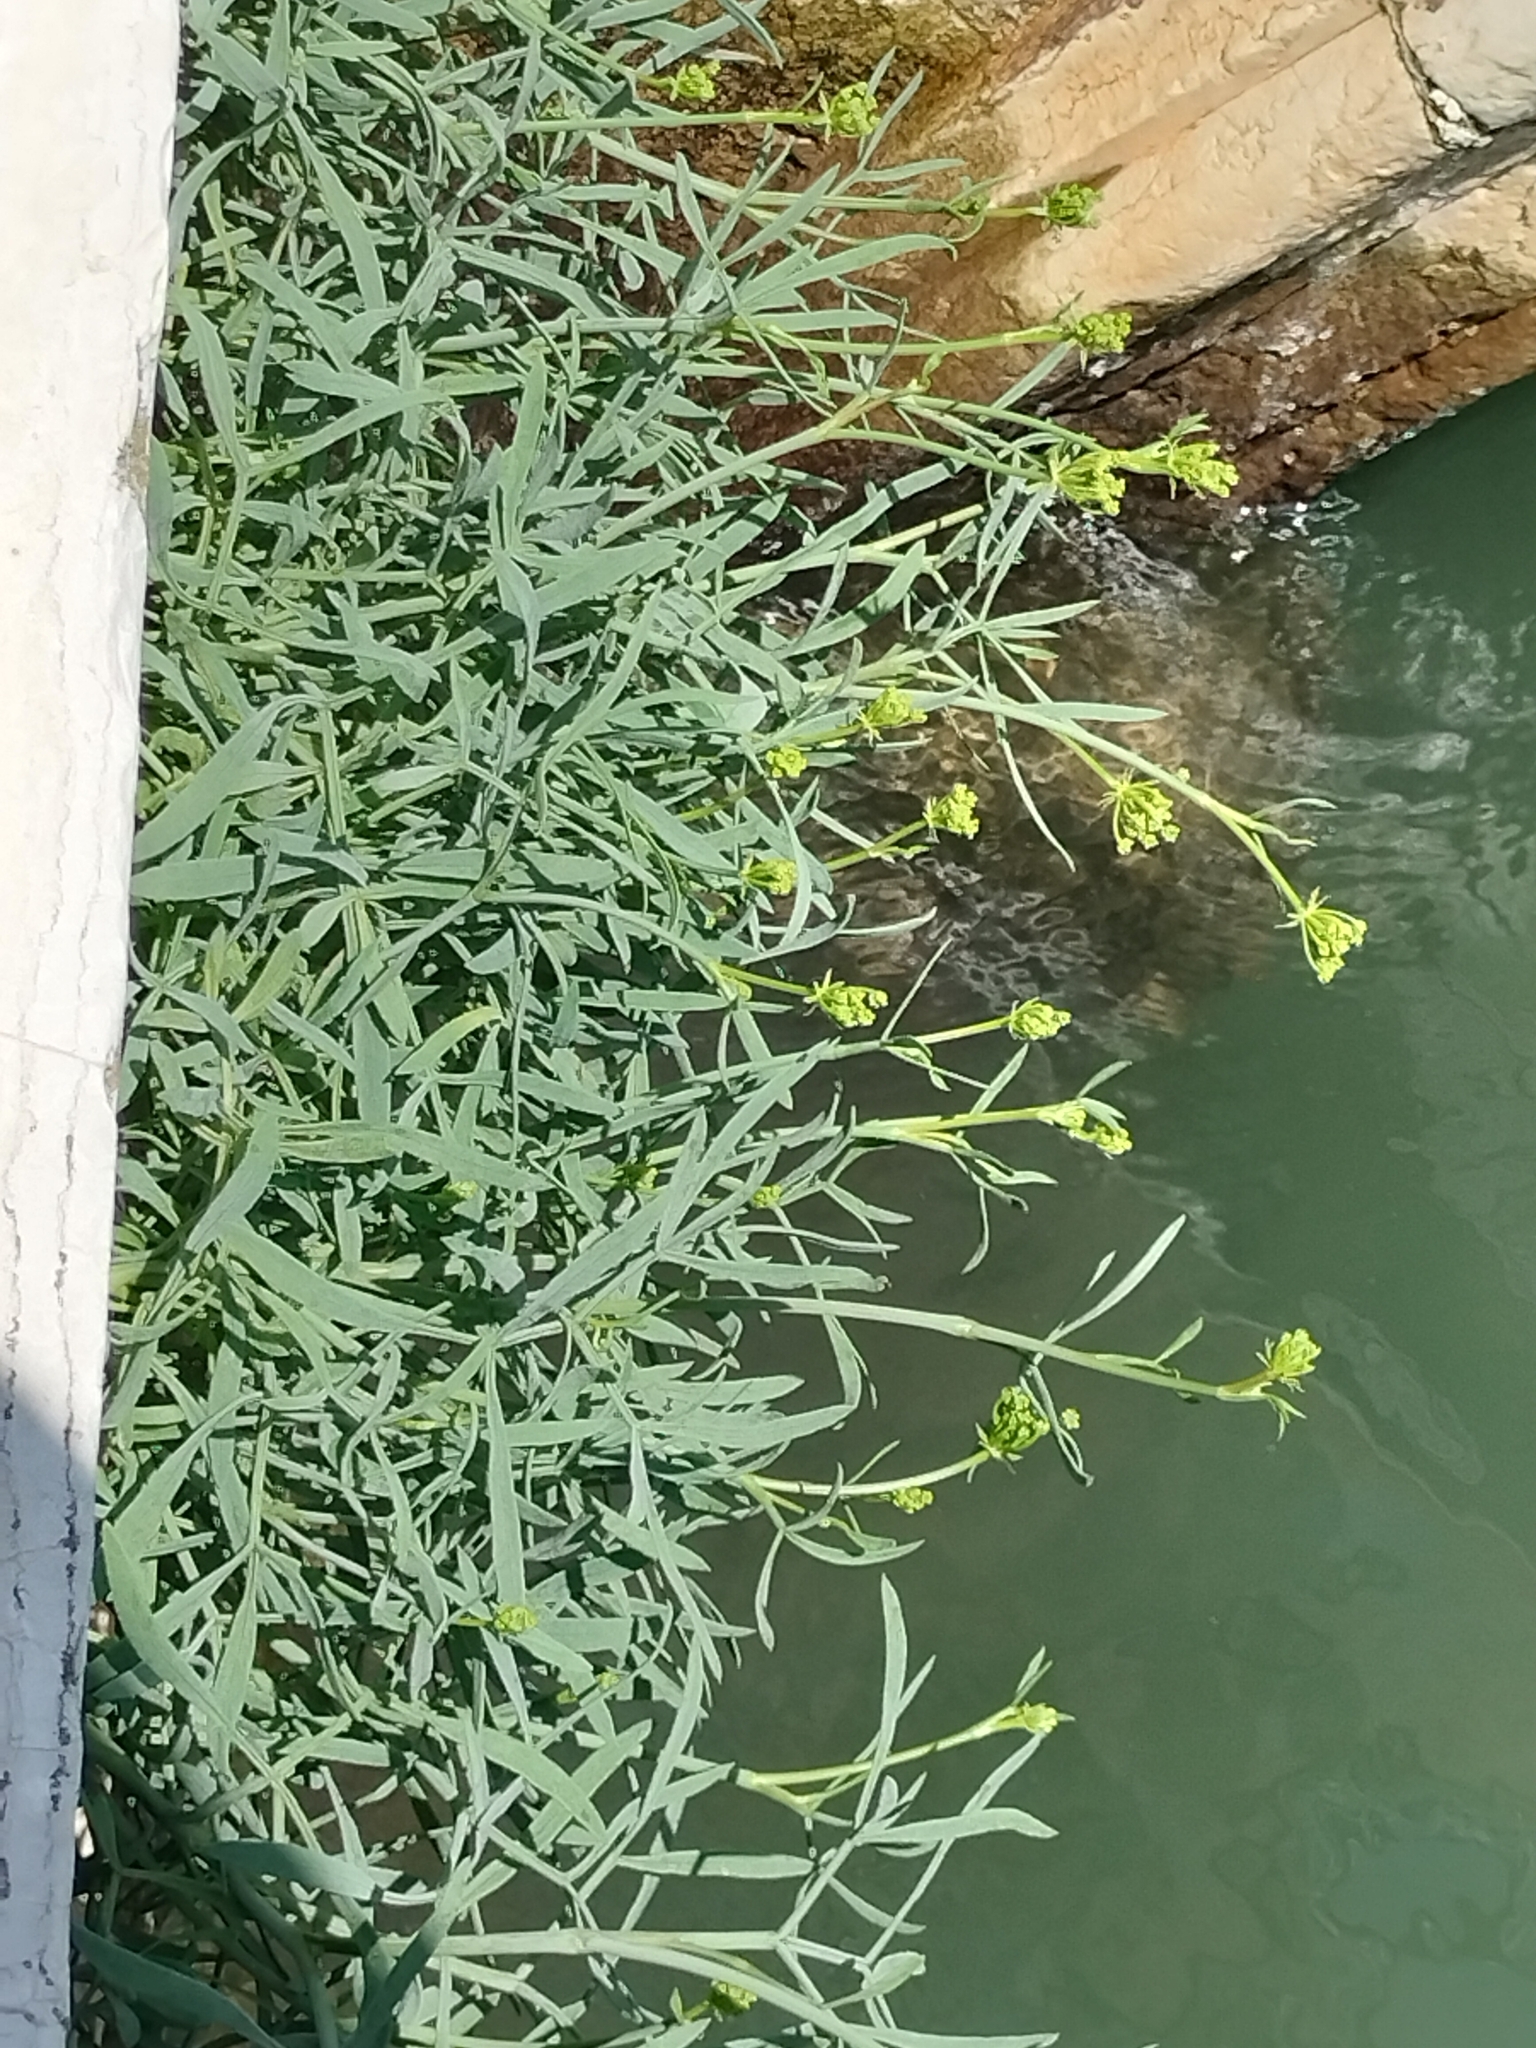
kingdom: Plantae
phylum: Tracheophyta
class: Magnoliopsida
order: Apiales
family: Apiaceae
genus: Crithmum
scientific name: Crithmum maritimum
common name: Rock samphire
